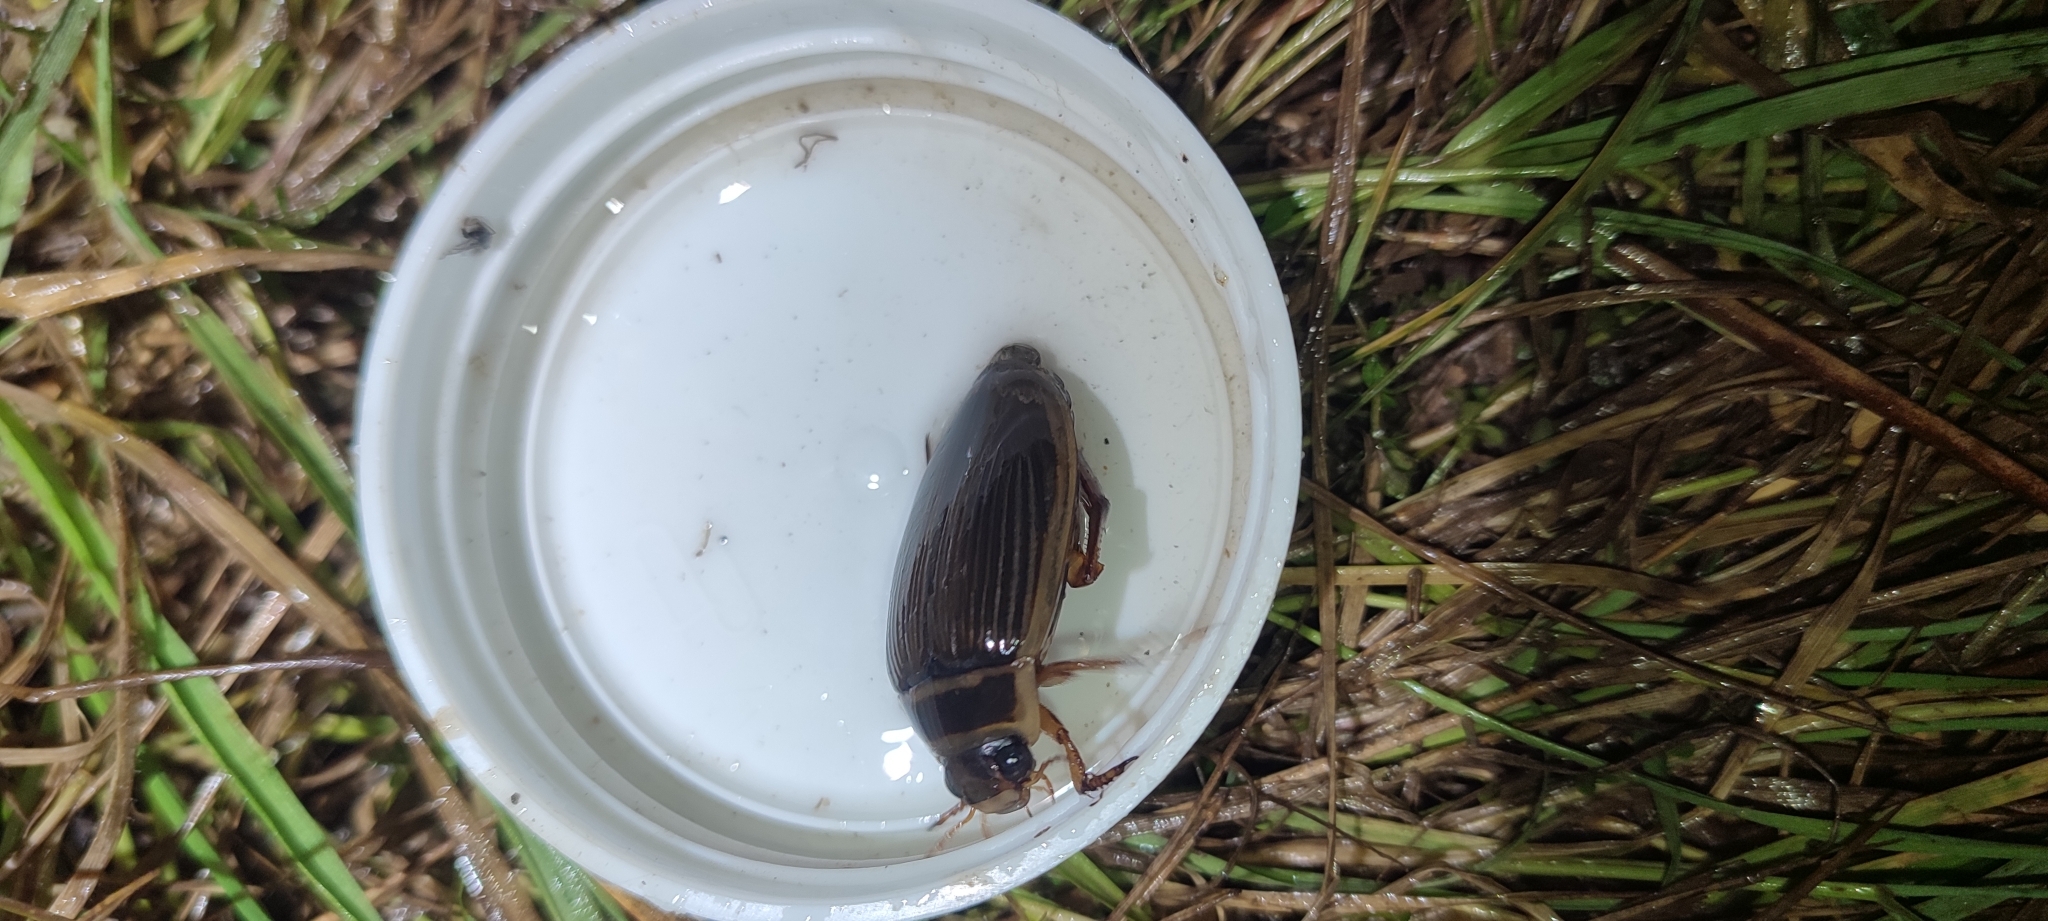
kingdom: Animalia
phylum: Arthropoda
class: Insecta
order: Coleoptera
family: Dytiscidae
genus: Dytiscus
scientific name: Dytiscus marginalis
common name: Great water beetle
